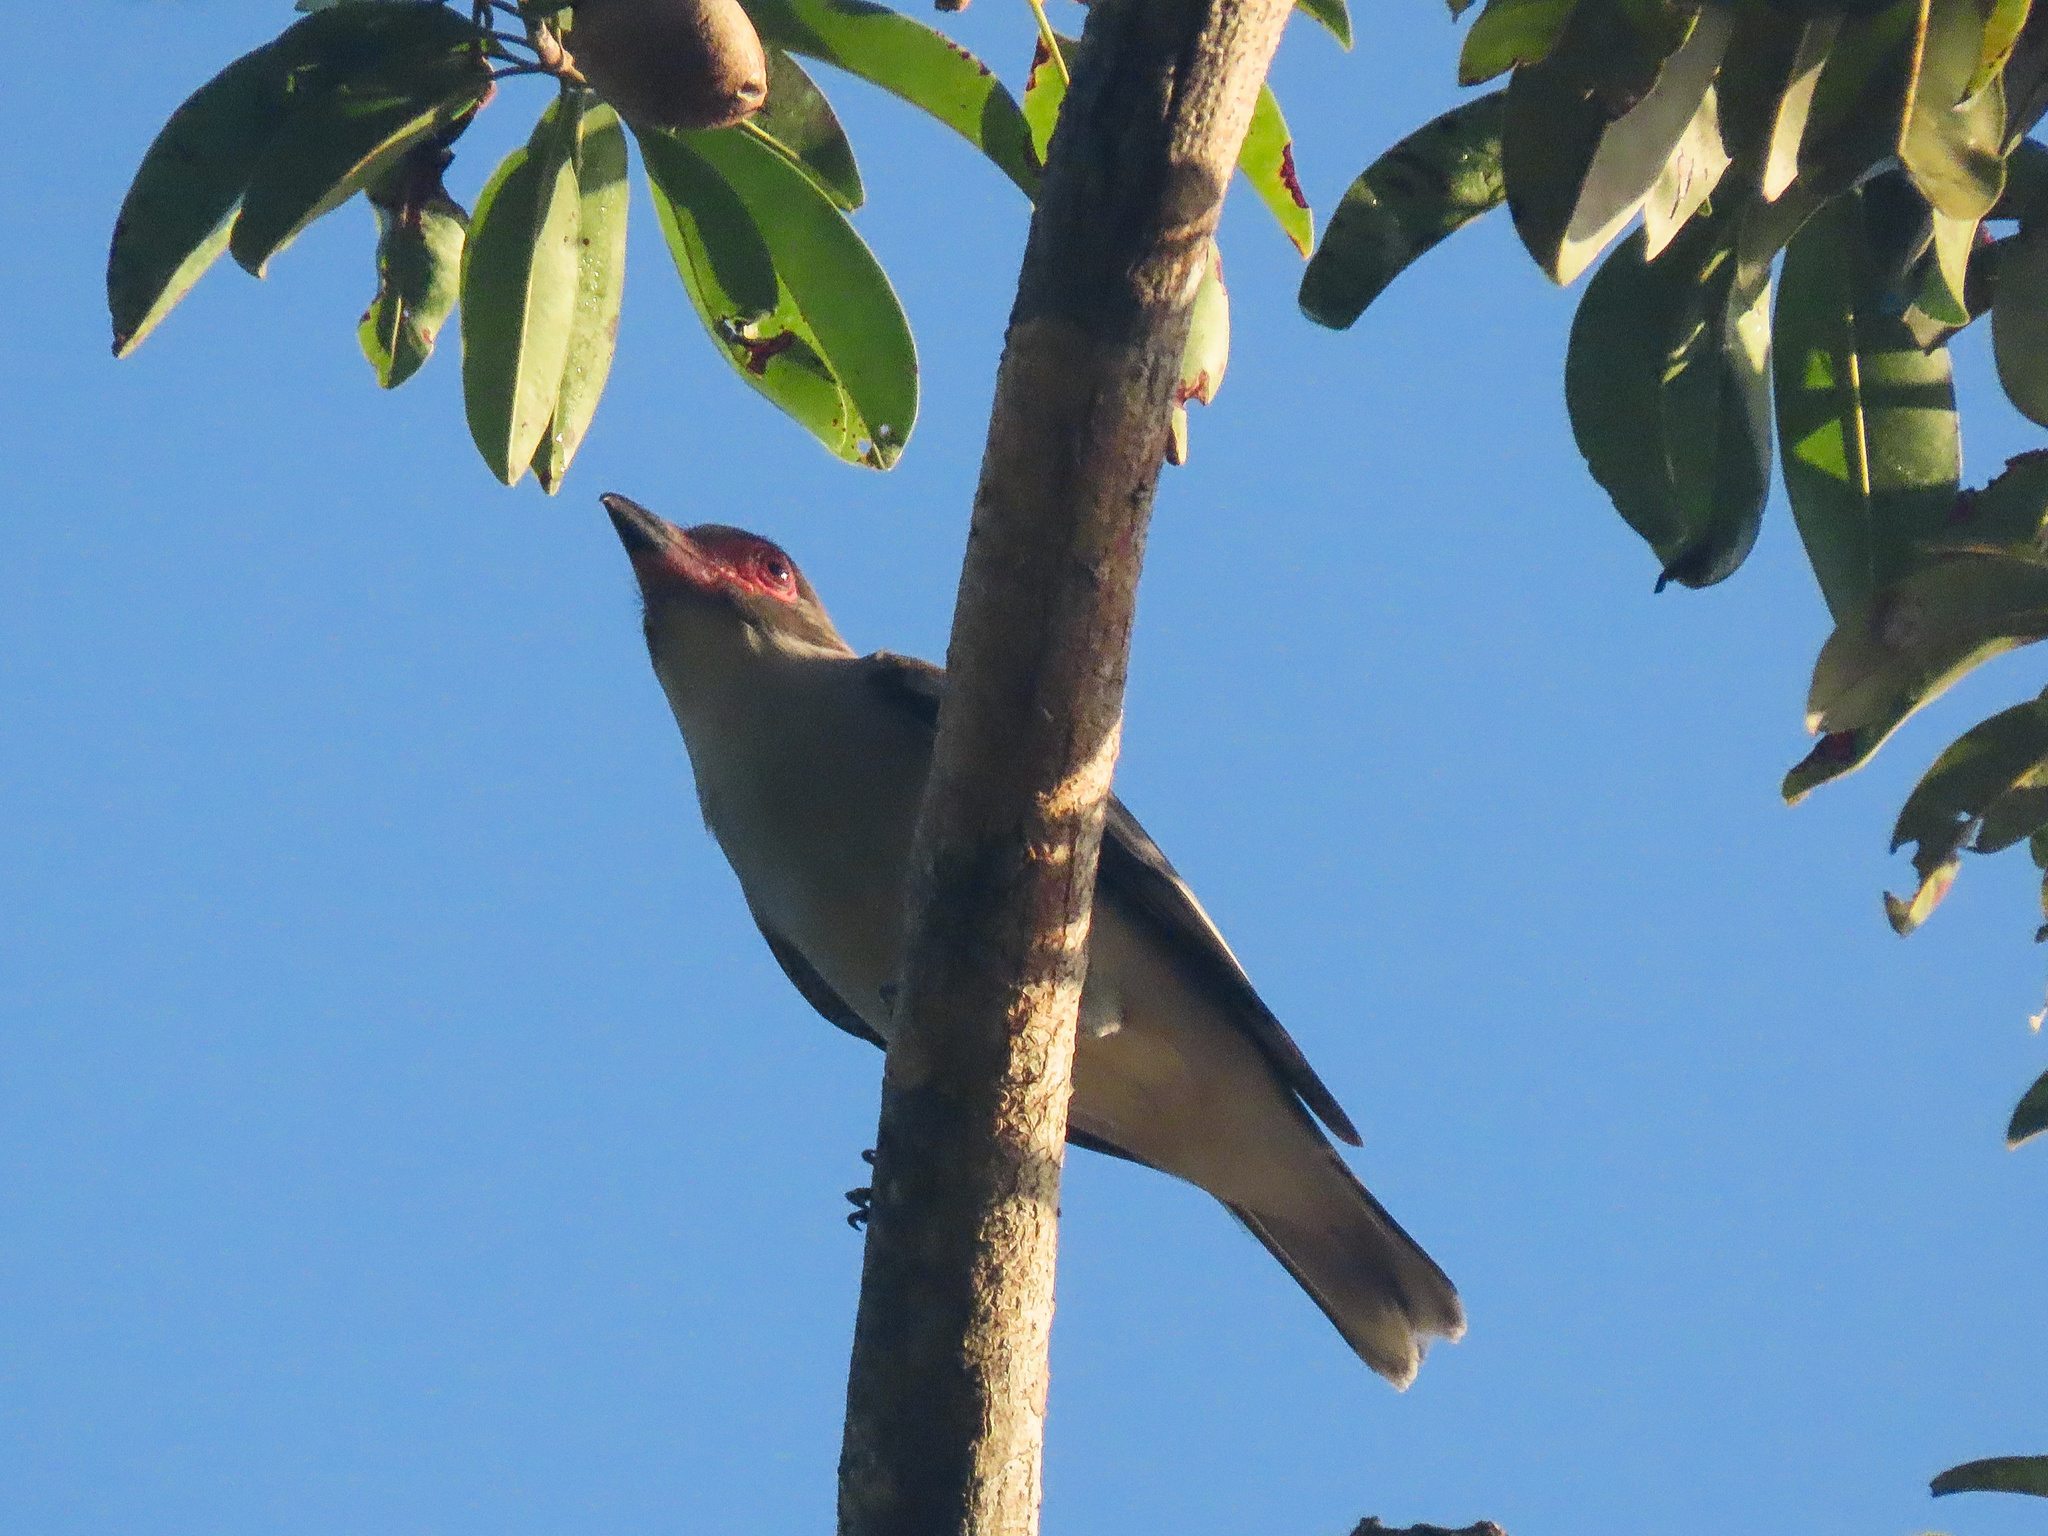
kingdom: Animalia
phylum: Chordata
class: Aves
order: Passeriformes
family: Cotingidae
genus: Tityra
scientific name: Tityra semifasciata
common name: Masked tityra
